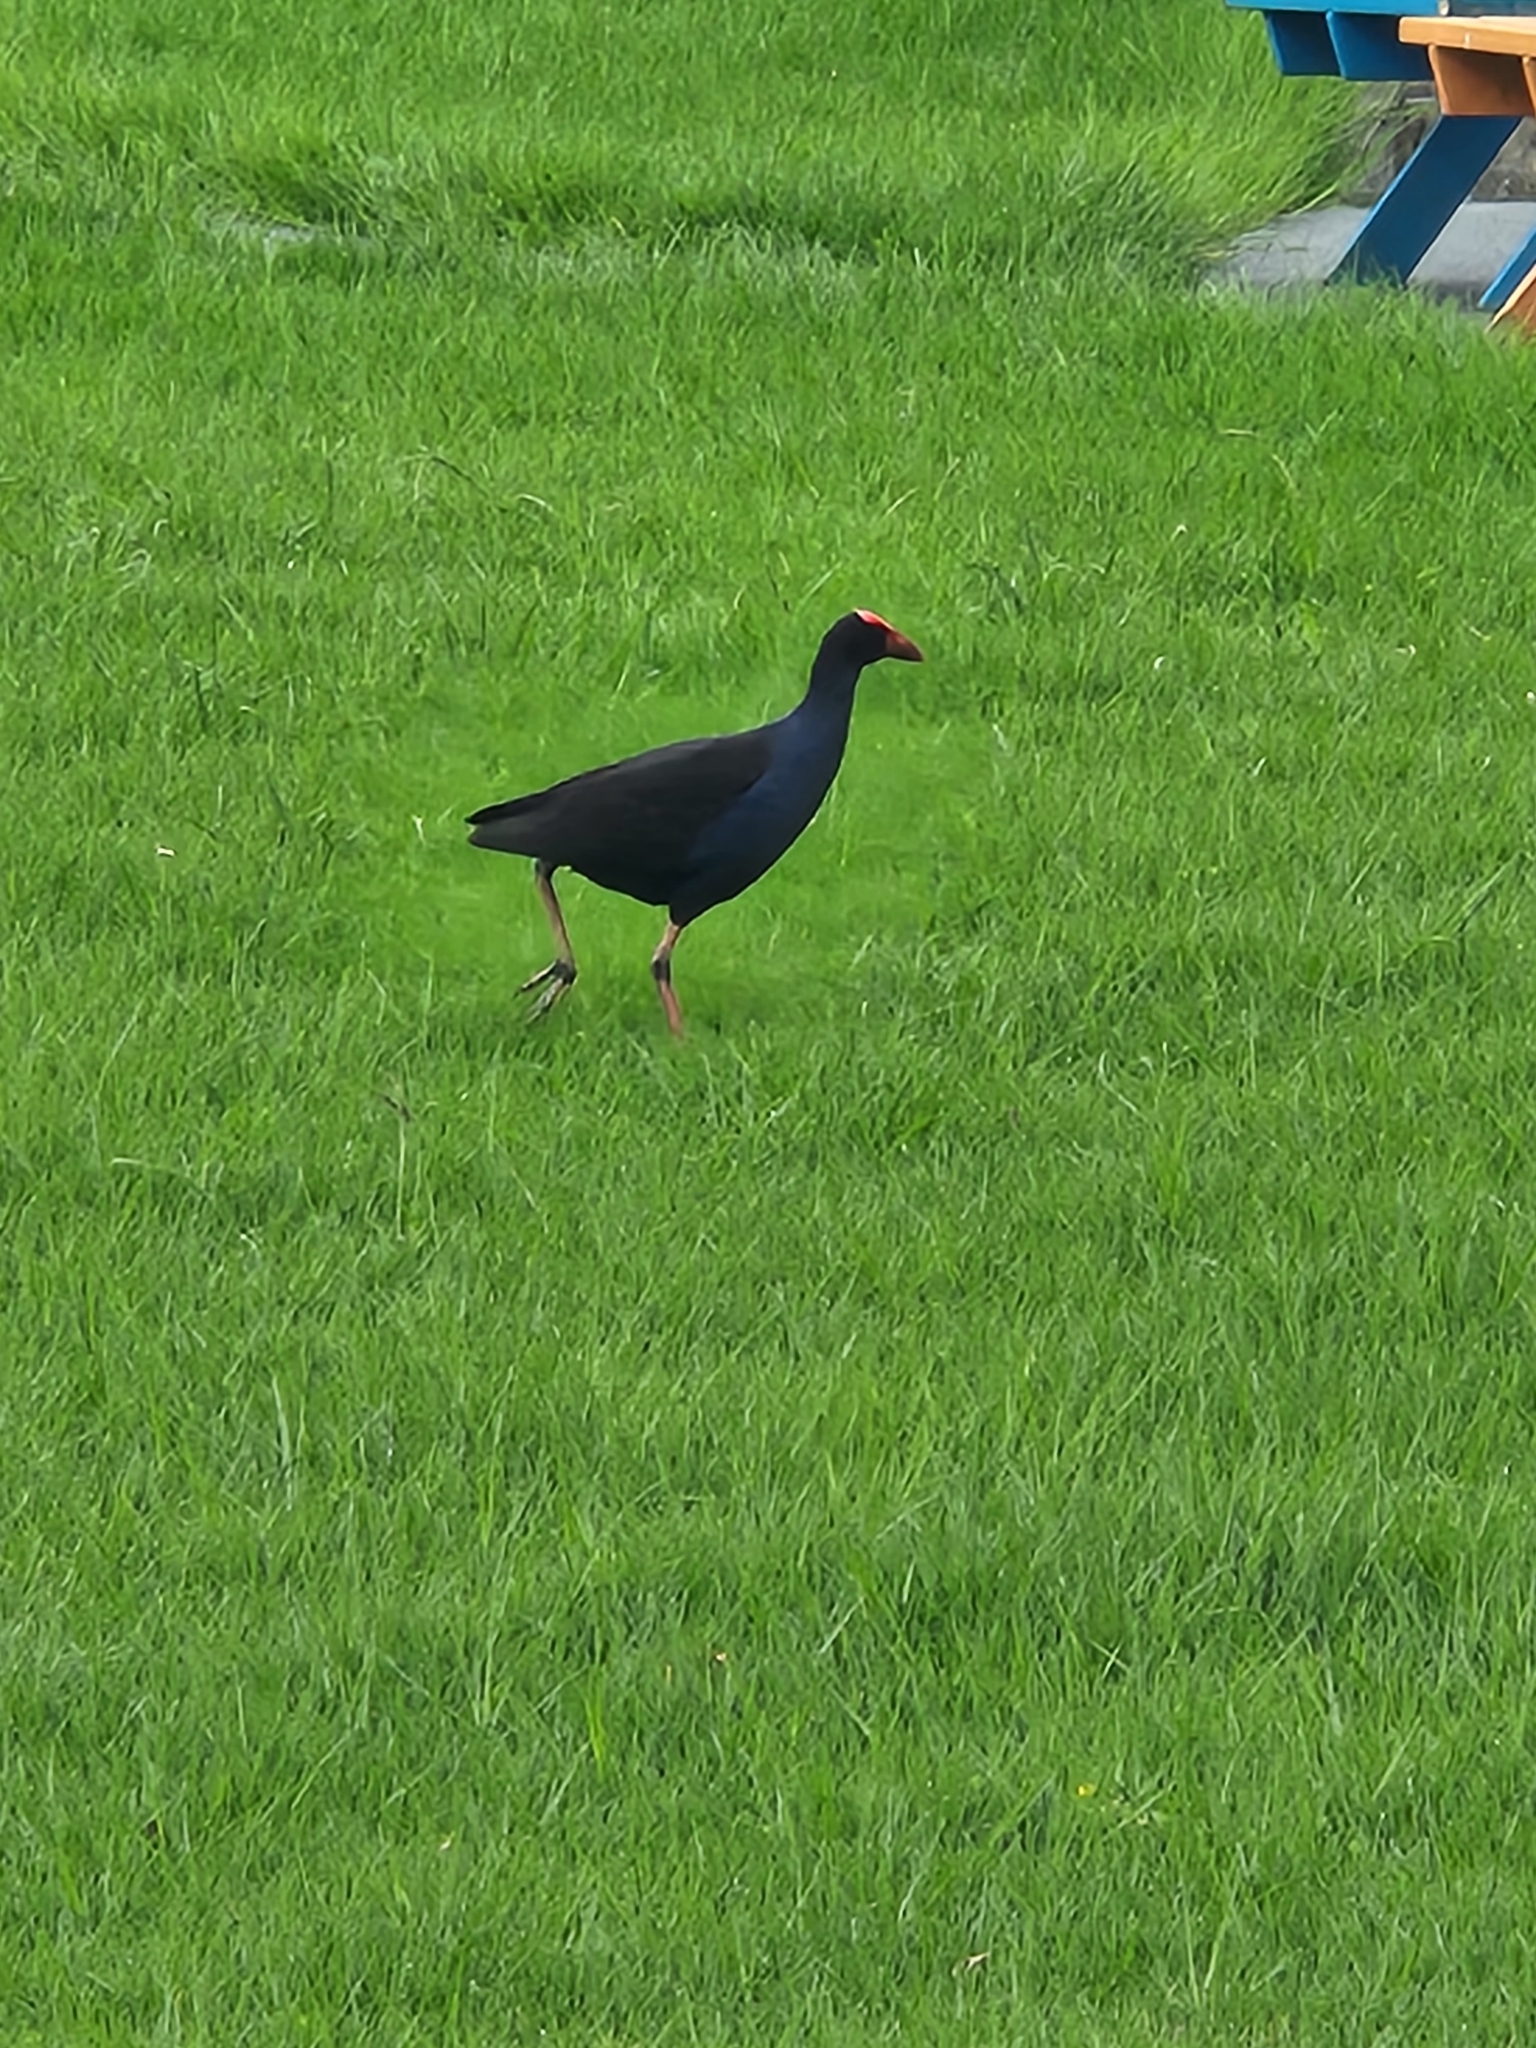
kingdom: Animalia
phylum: Chordata
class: Aves
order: Gruiformes
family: Rallidae
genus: Porphyrio
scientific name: Porphyrio melanotus
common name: Australasian swamphen
